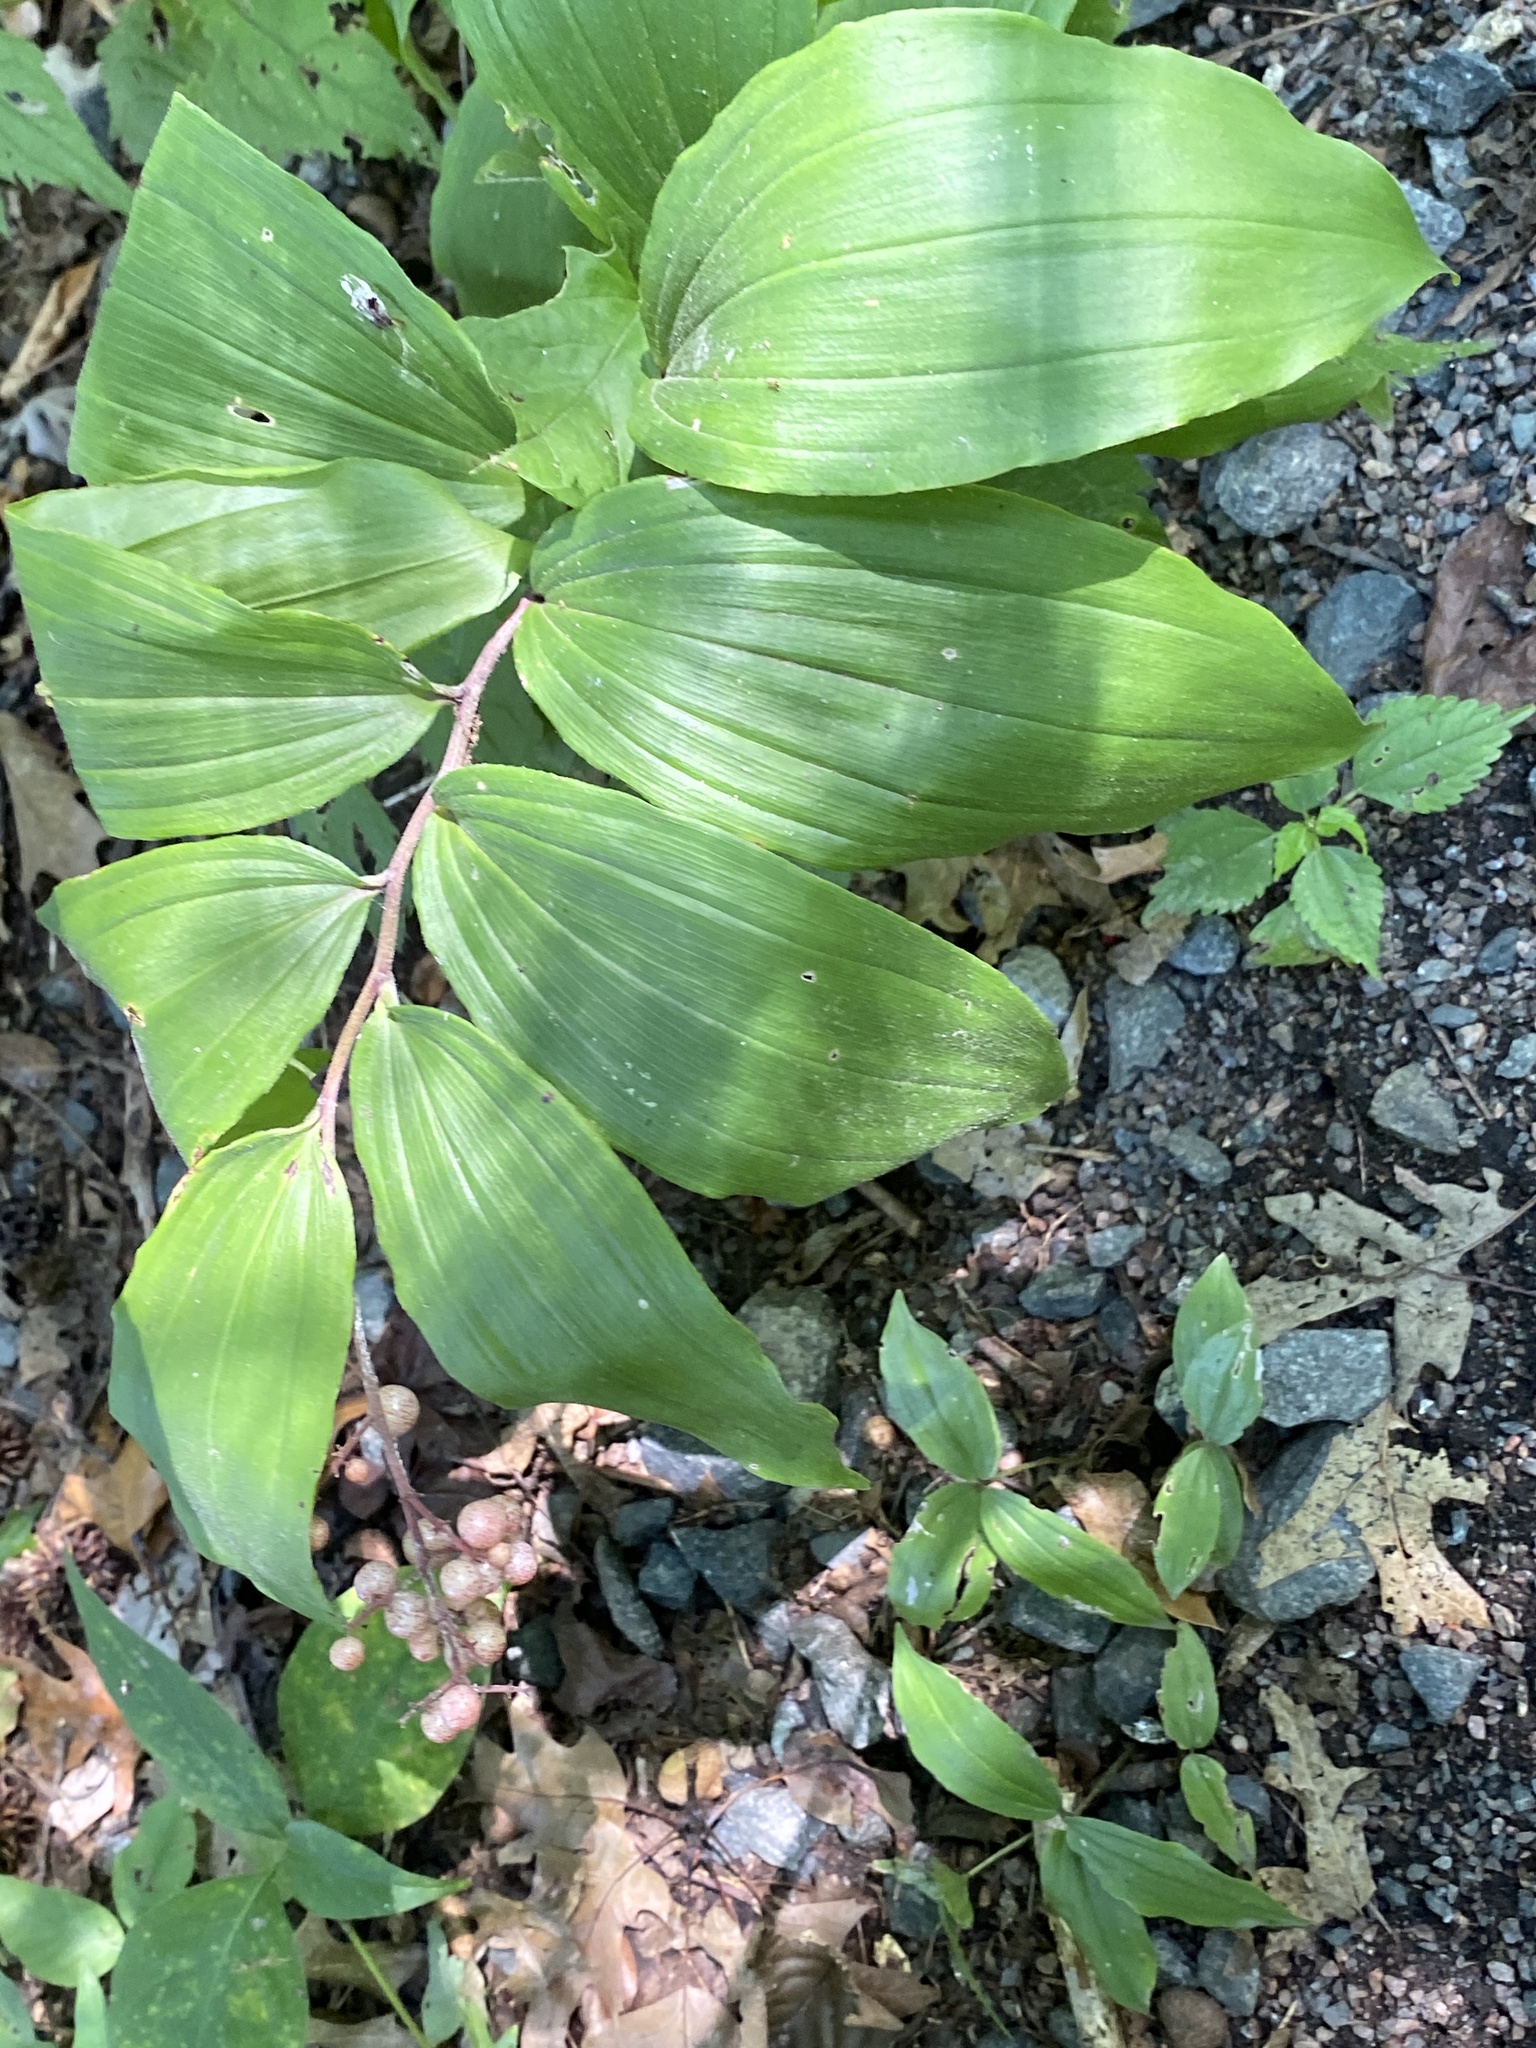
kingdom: Plantae
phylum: Tracheophyta
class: Liliopsida
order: Asparagales
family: Asparagaceae
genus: Maianthemum
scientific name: Maianthemum racemosum
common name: False spikenard
